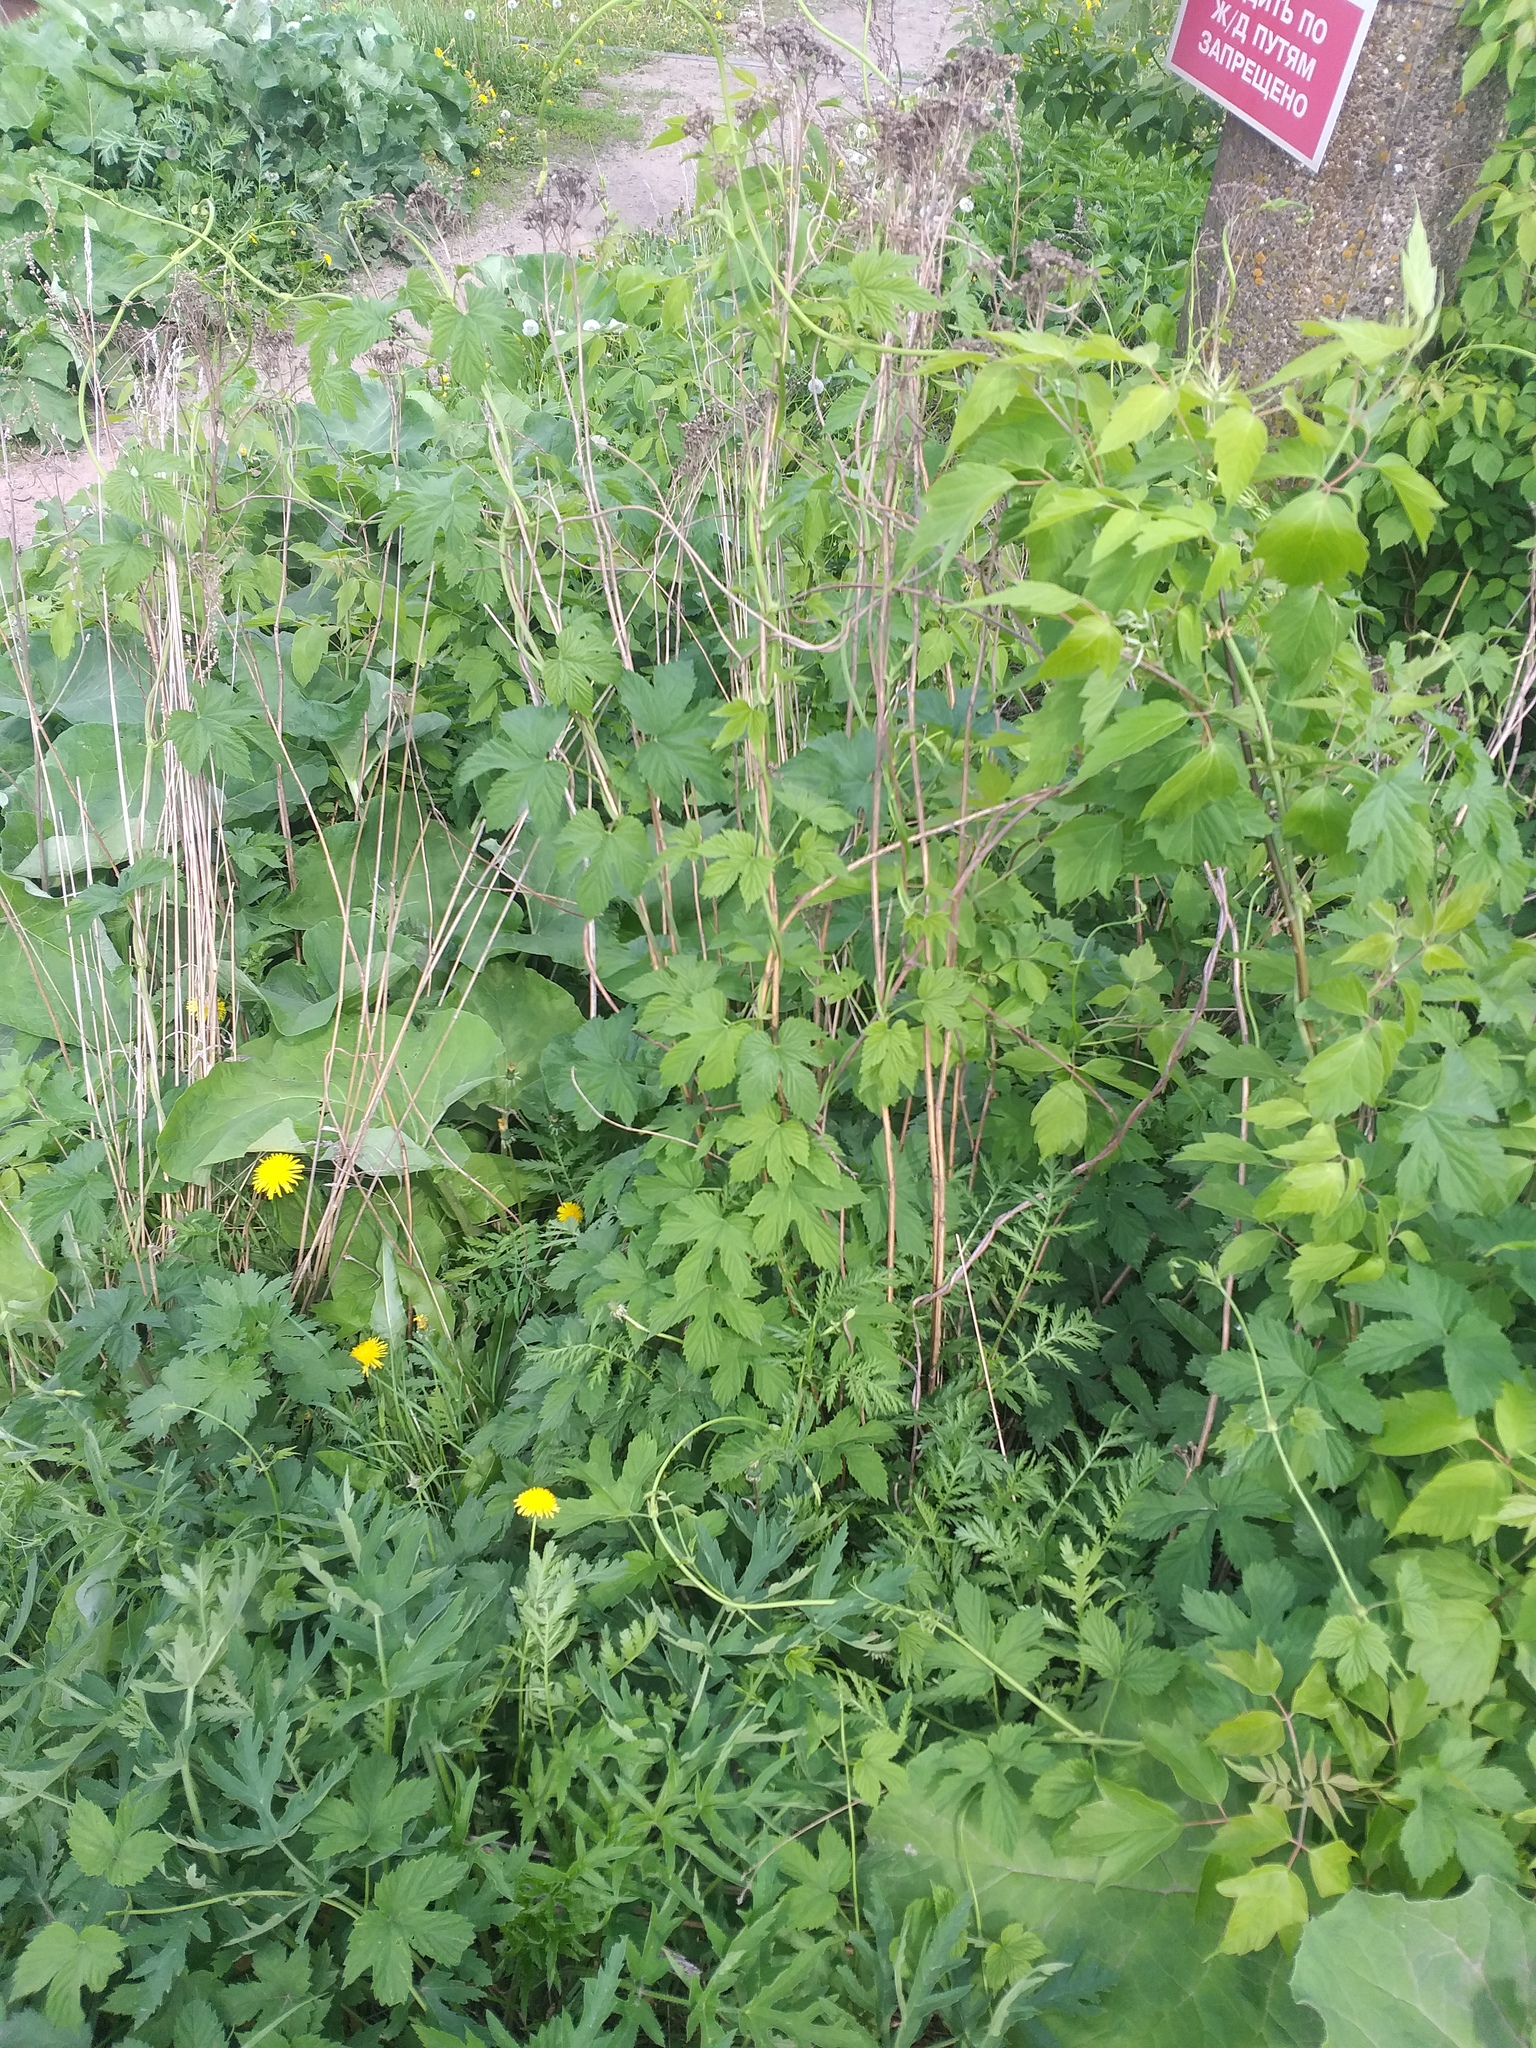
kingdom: Plantae
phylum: Tracheophyta
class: Magnoliopsida
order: Rosales
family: Cannabaceae
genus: Humulus
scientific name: Humulus lupulus
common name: Hop
